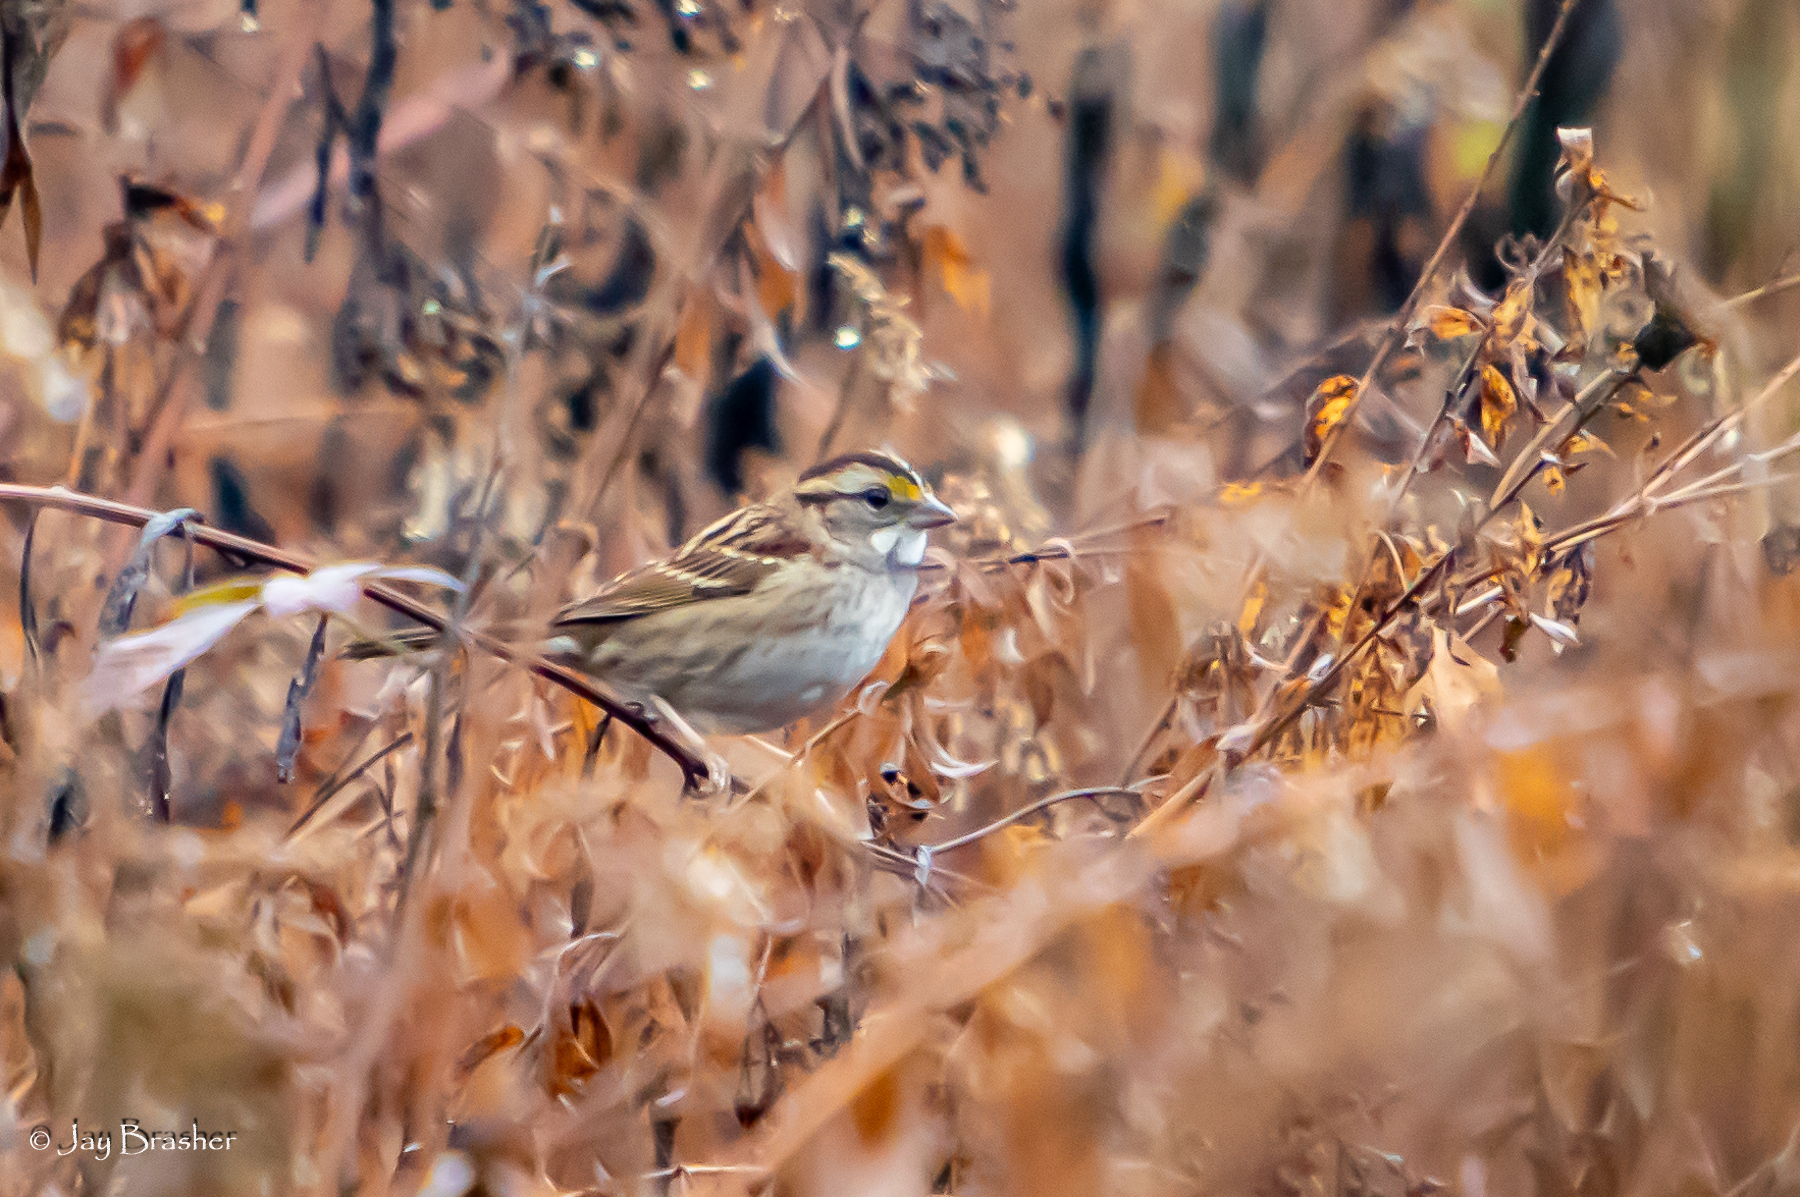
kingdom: Animalia
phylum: Chordata
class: Aves
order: Passeriformes
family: Passerellidae
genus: Zonotrichia
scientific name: Zonotrichia albicollis
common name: White-throated sparrow
